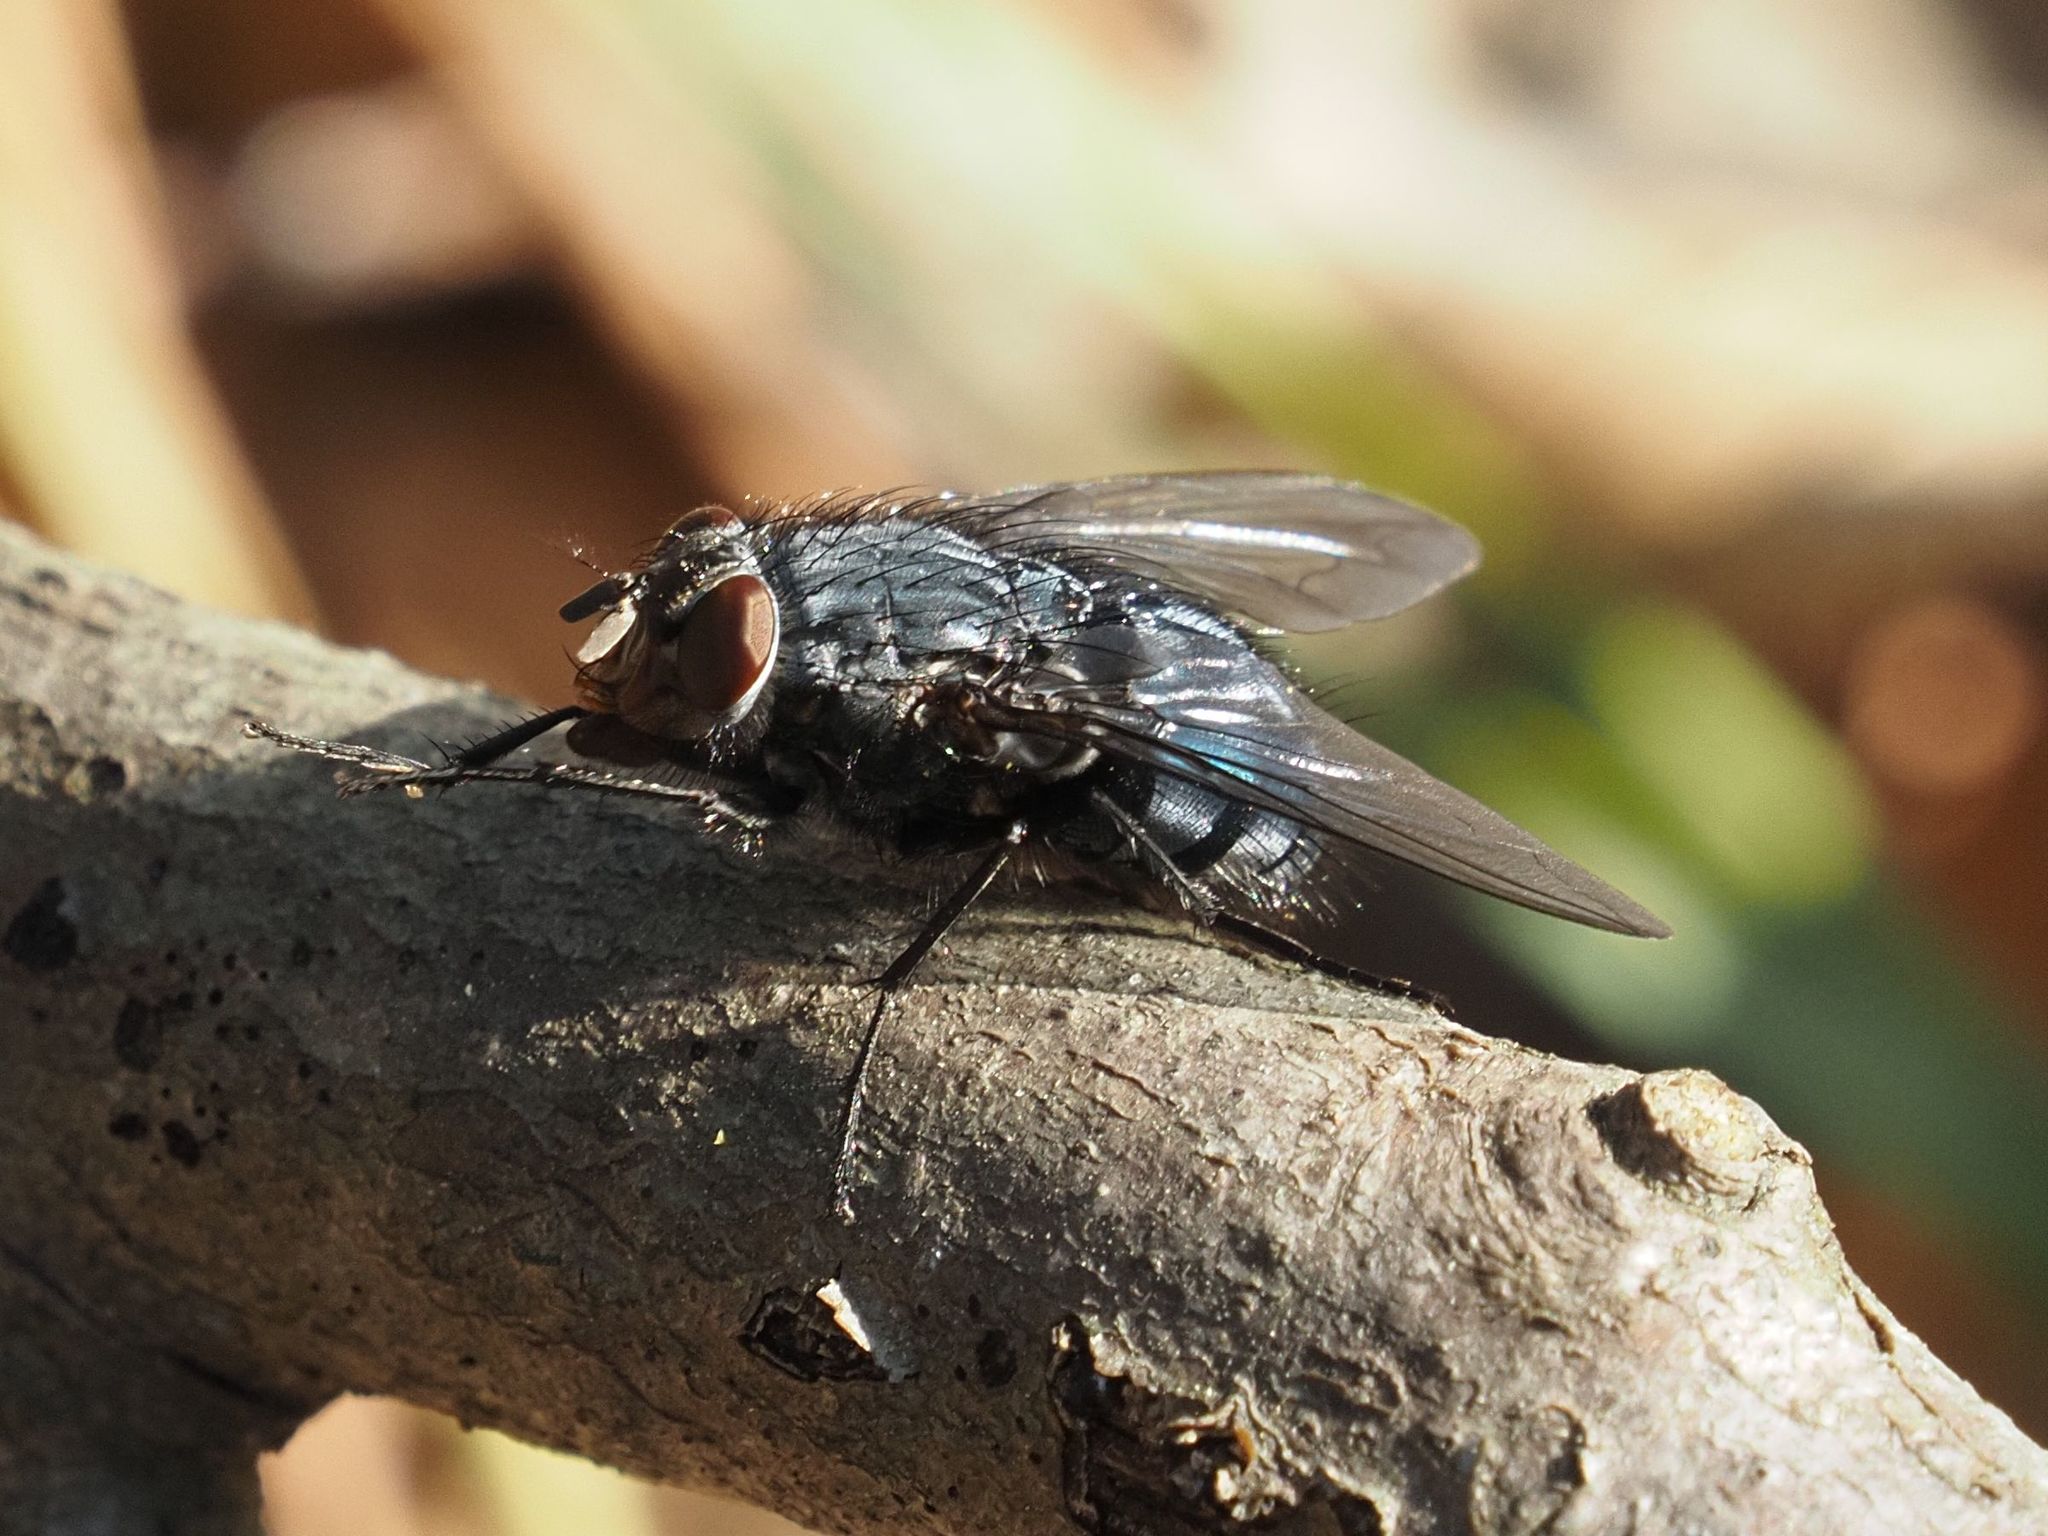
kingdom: Animalia
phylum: Arthropoda
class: Insecta
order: Diptera
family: Calliphoridae
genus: Calliphora
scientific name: Calliphora vicina
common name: Common blow flie
